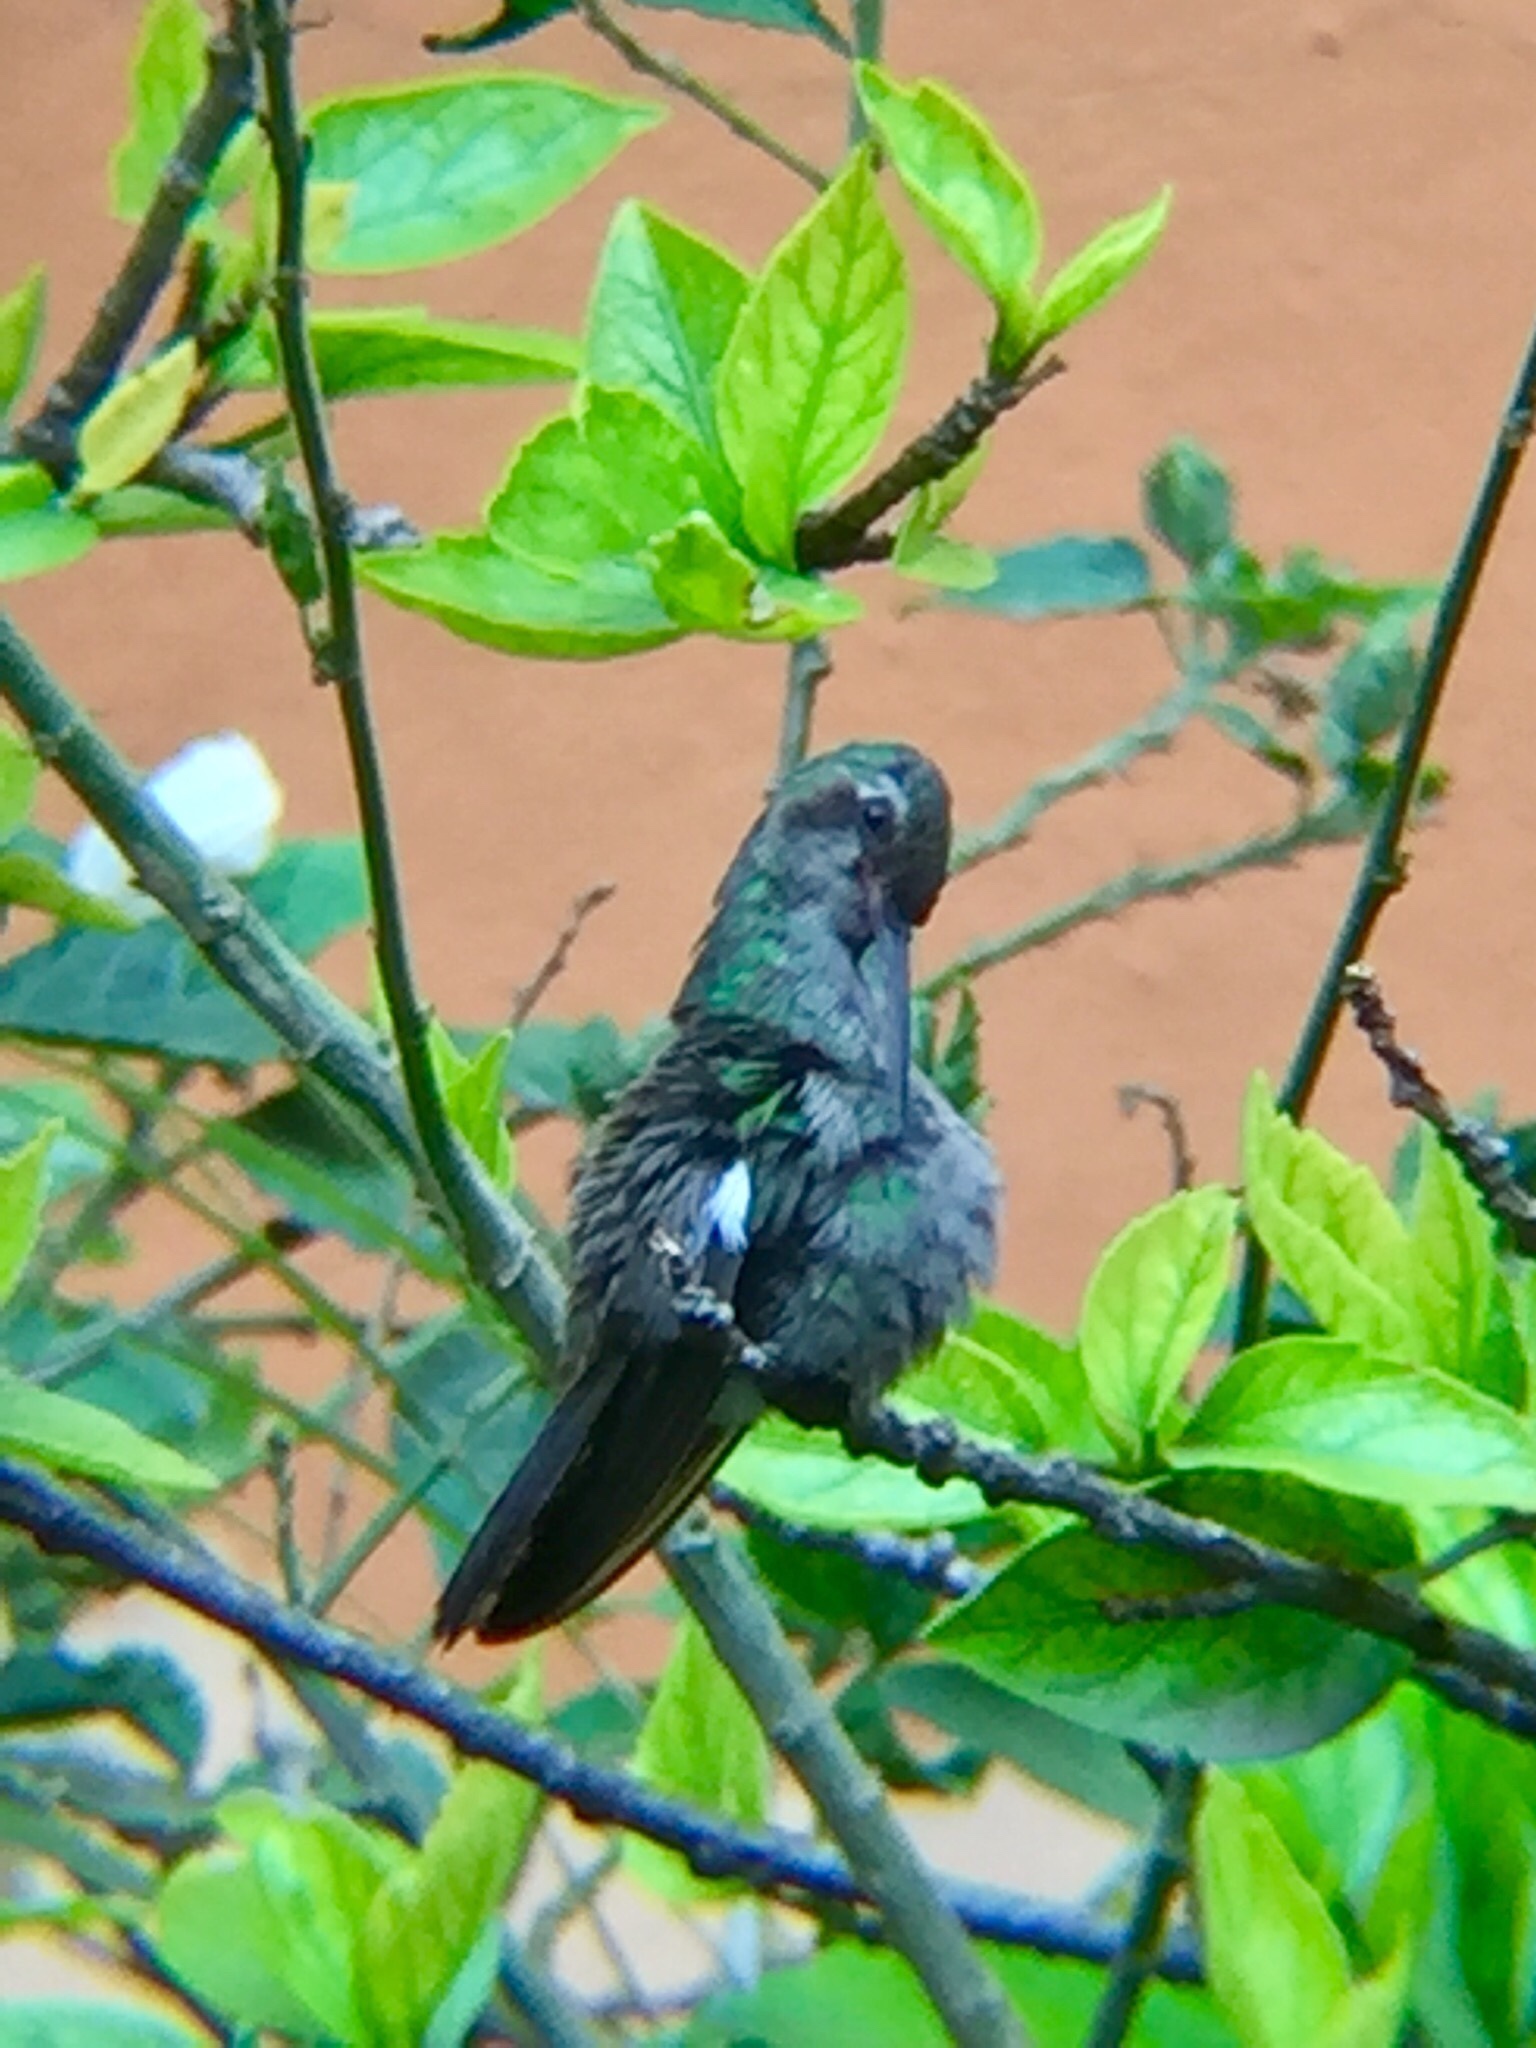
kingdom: Animalia
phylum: Chordata
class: Aves
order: Apodiformes
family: Trochilidae
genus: Cynanthus
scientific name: Cynanthus latirostris
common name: Broad-billed hummingbird
